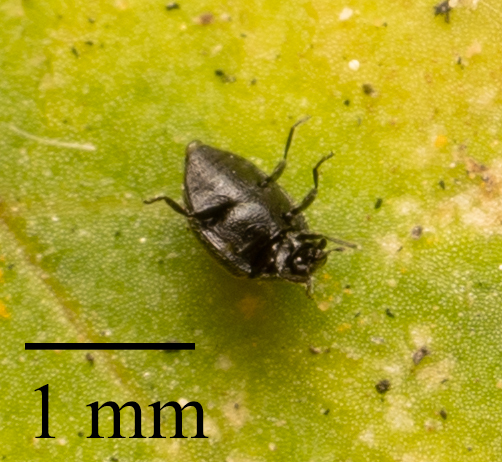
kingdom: Animalia
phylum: Arthropoda
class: Insecta
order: Coleoptera
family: Coccinellidae
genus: Stethorus
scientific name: Stethorus punctum
